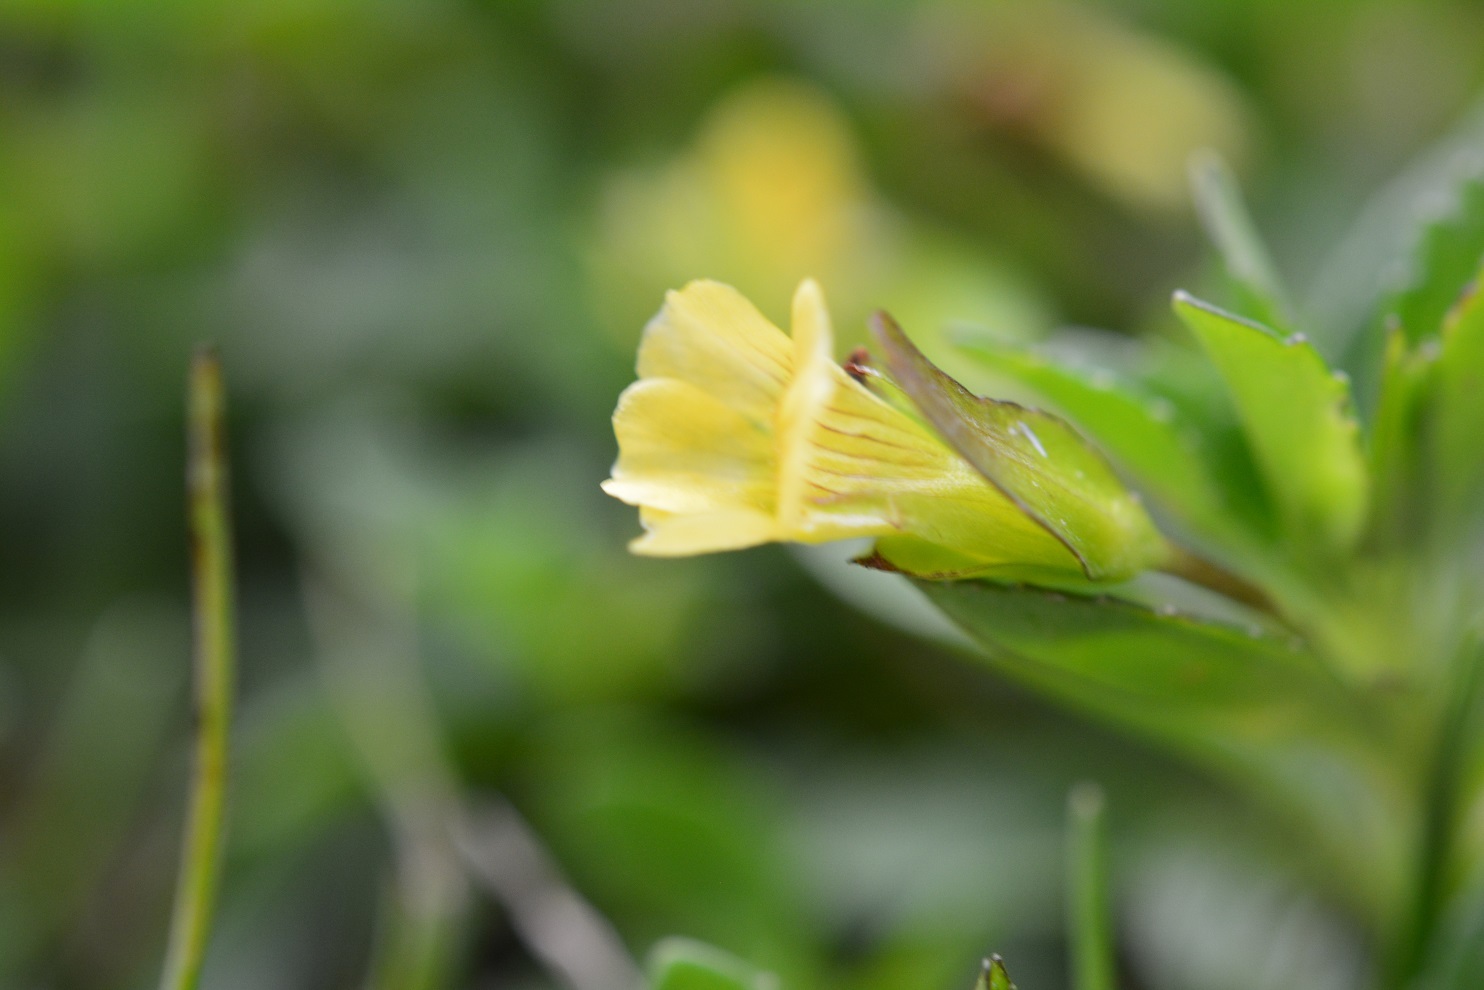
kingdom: Plantae
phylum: Tracheophyta
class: Magnoliopsida
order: Lamiales
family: Plantaginaceae
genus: Mecardonia
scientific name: Mecardonia procumbens
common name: Baby jump-up
